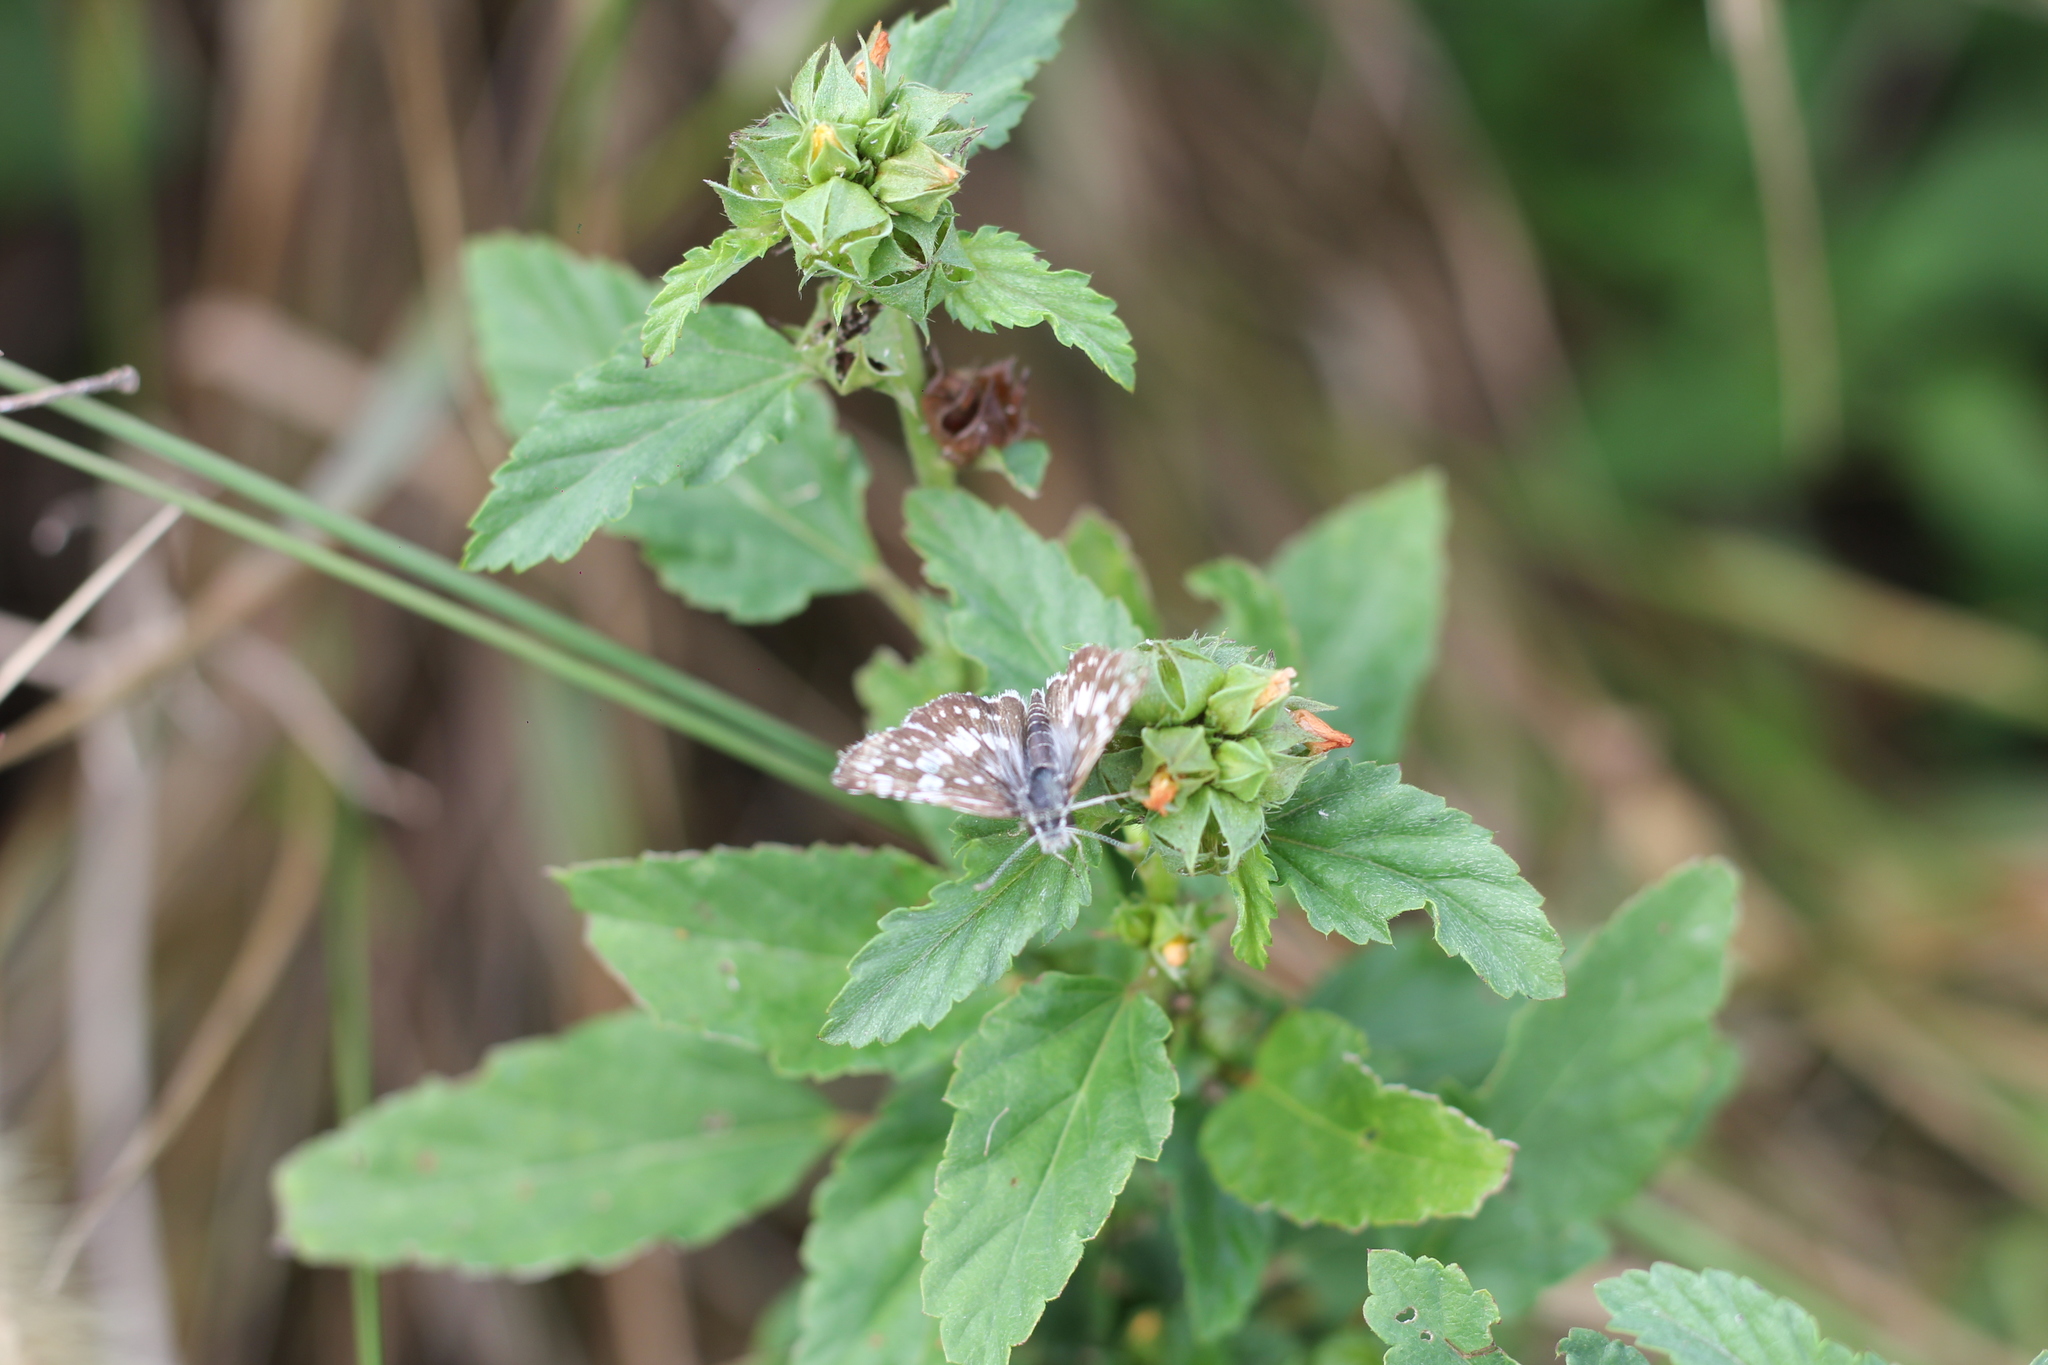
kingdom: Animalia
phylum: Arthropoda
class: Insecta
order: Lepidoptera
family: Hesperiidae
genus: Burnsius
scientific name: Burnsius orcynoides
